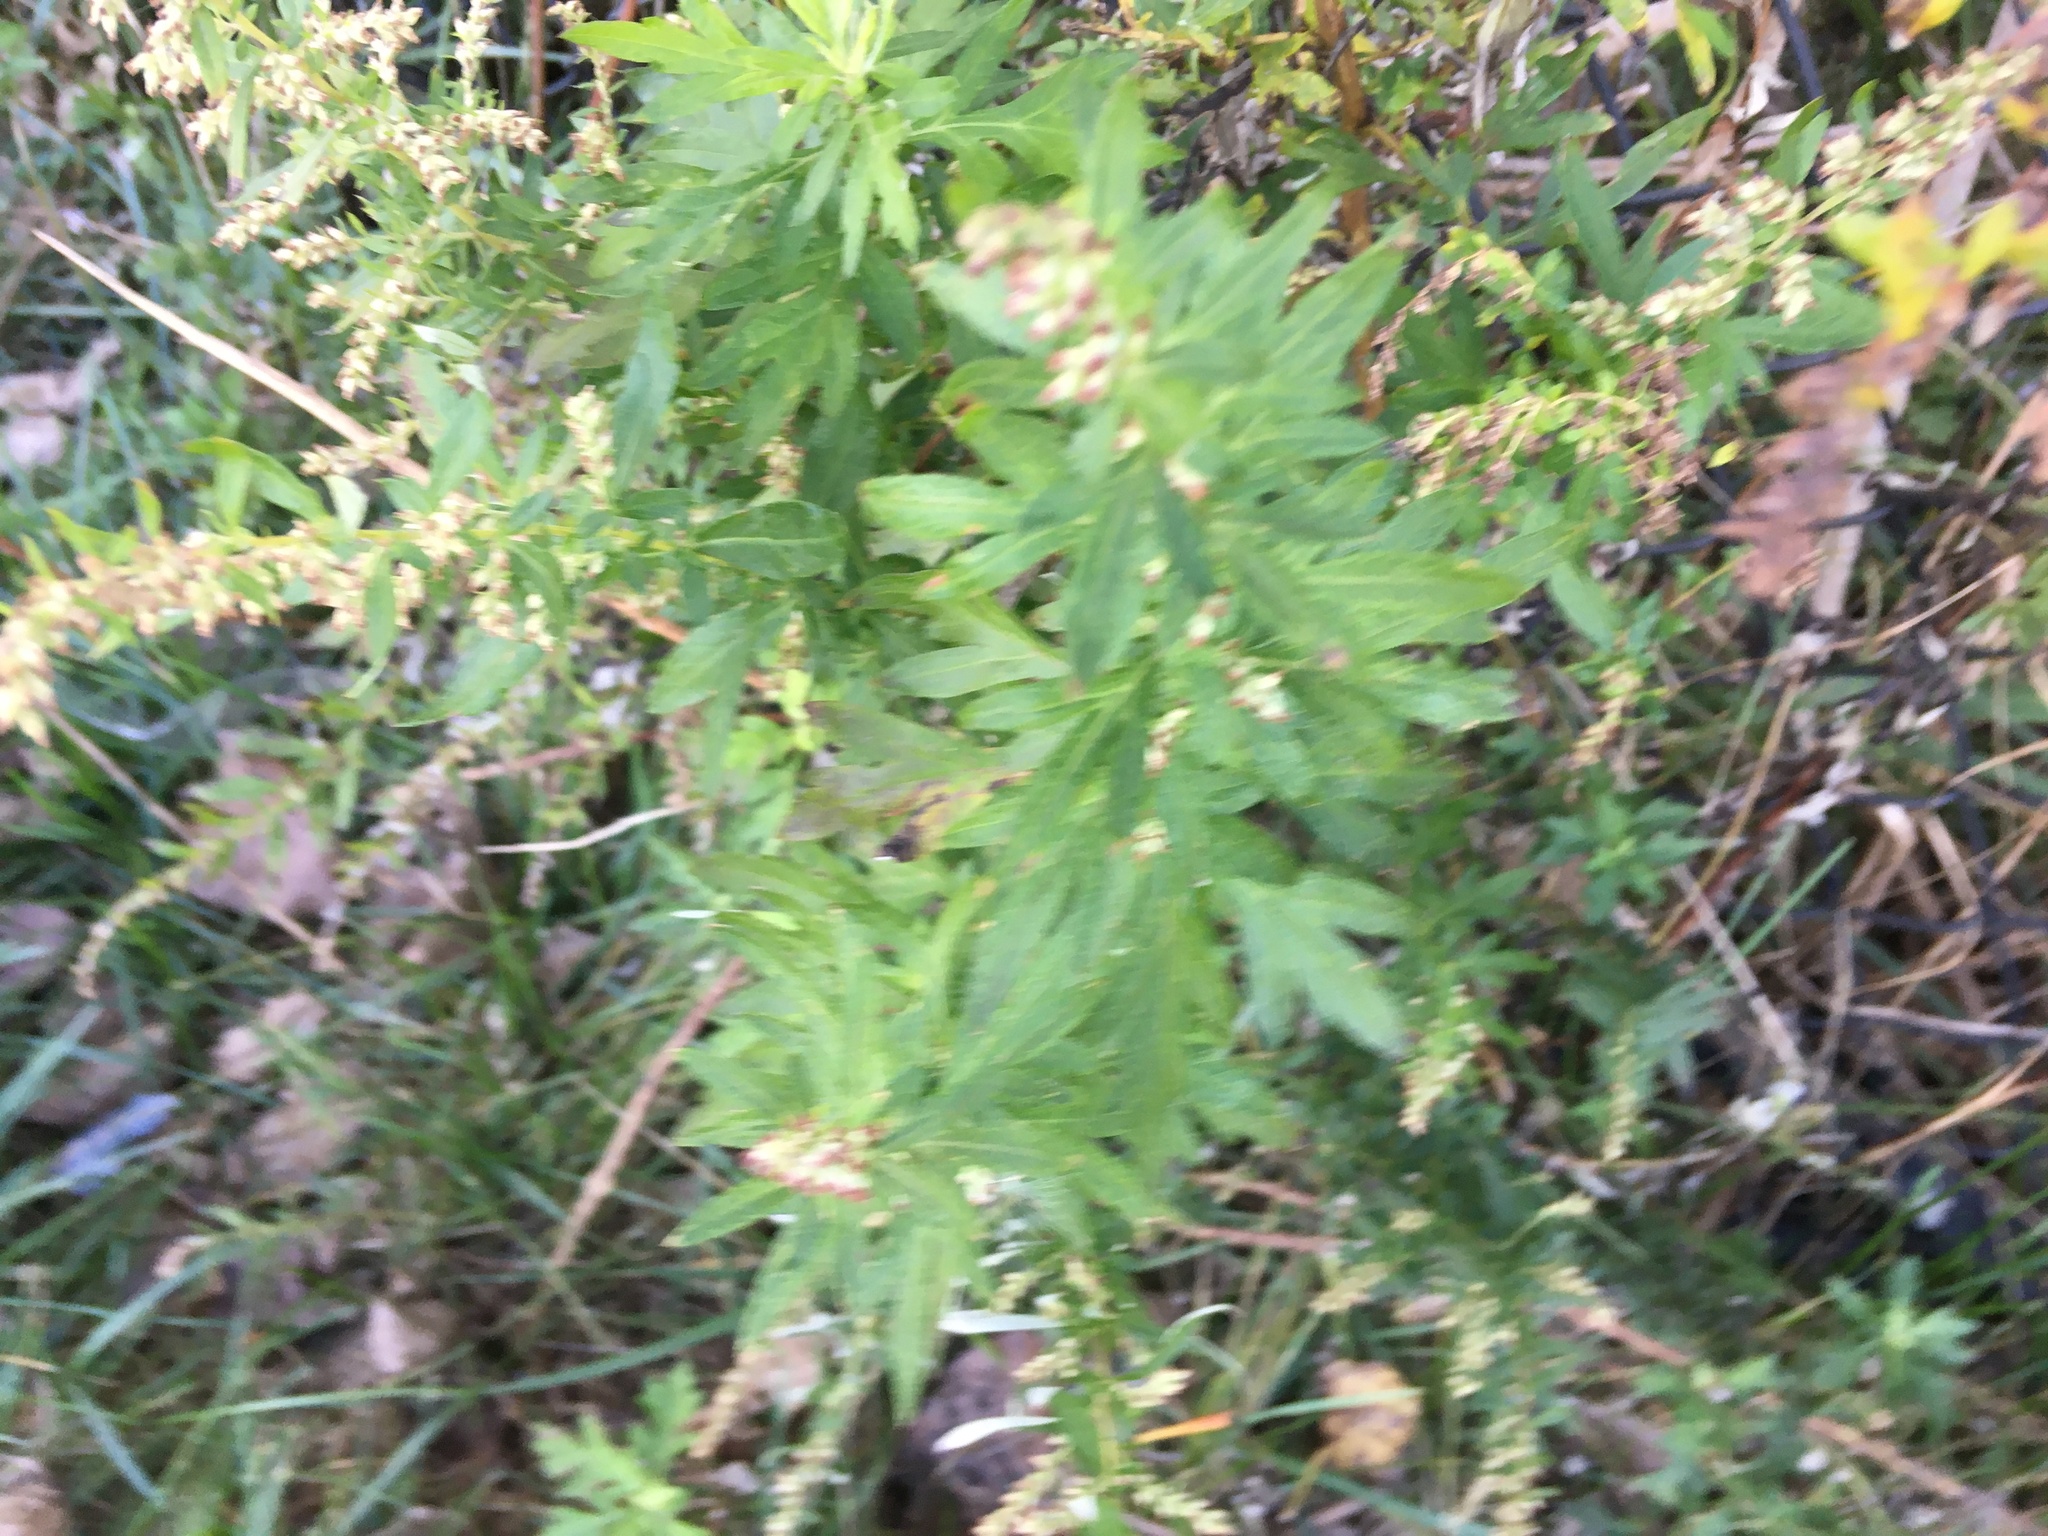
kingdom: Plantae
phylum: Tracheophyta
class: Magnoliopsida
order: Asterales
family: Asteraceae
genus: Artemisia
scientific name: Artemisia vulgaris
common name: Mugwort
